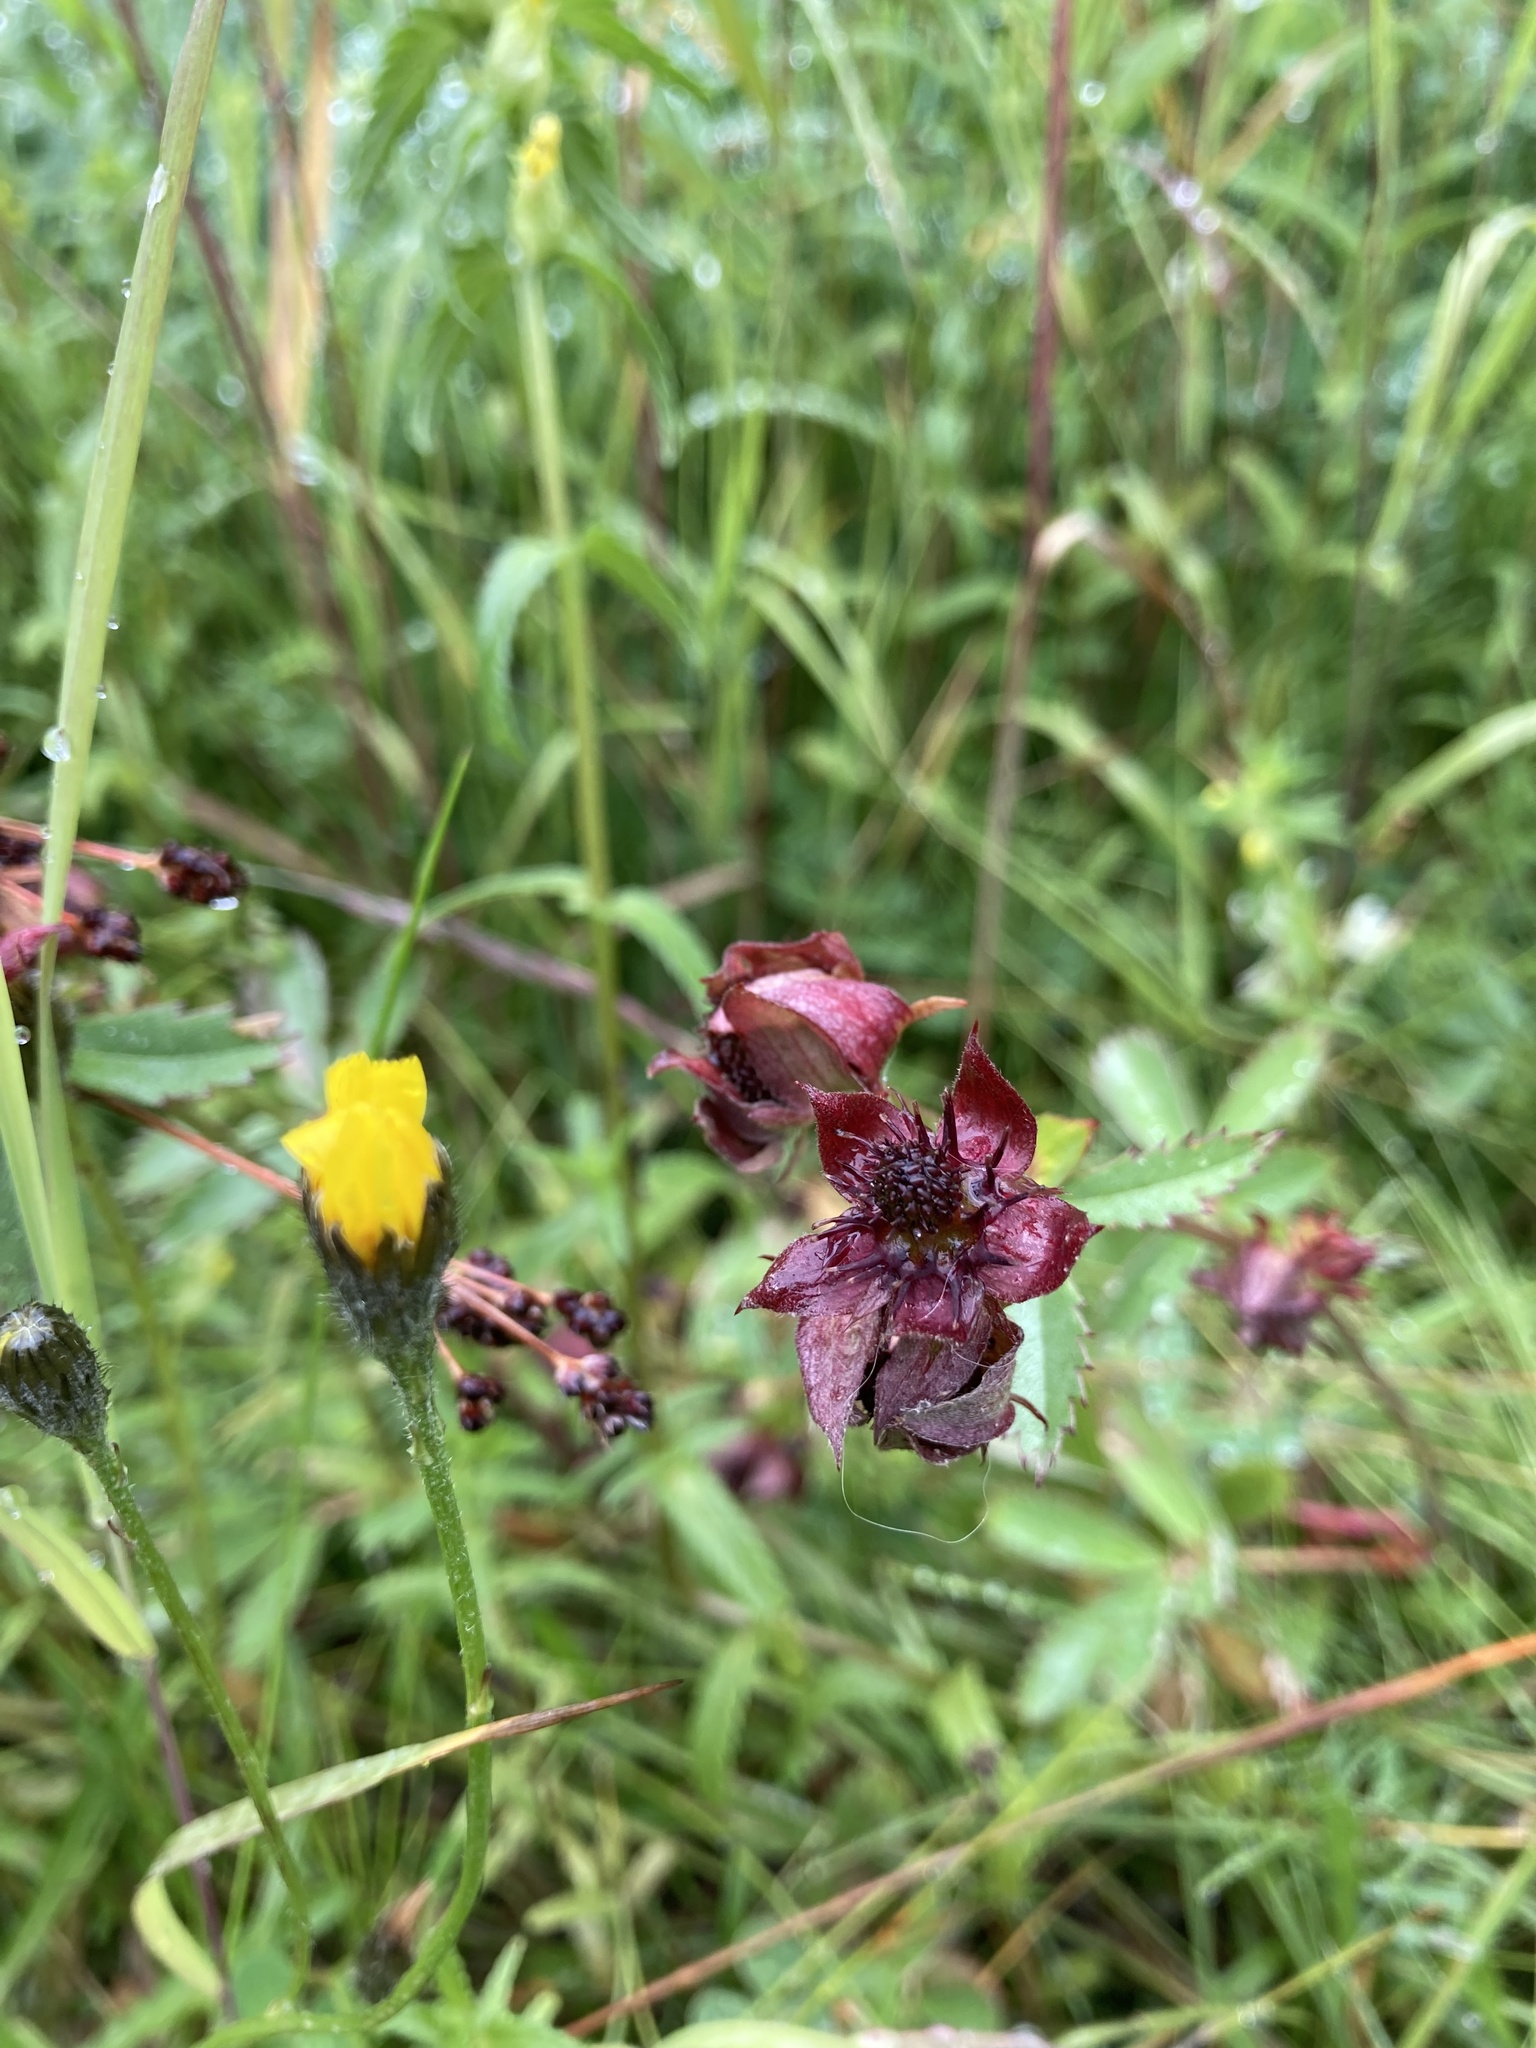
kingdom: Plantae
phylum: Tracheophyta
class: Magnoliopsida
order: Rosales
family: Rosaceae
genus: Comarum
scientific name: Comarum palustre
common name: Marsh cinquefoil
